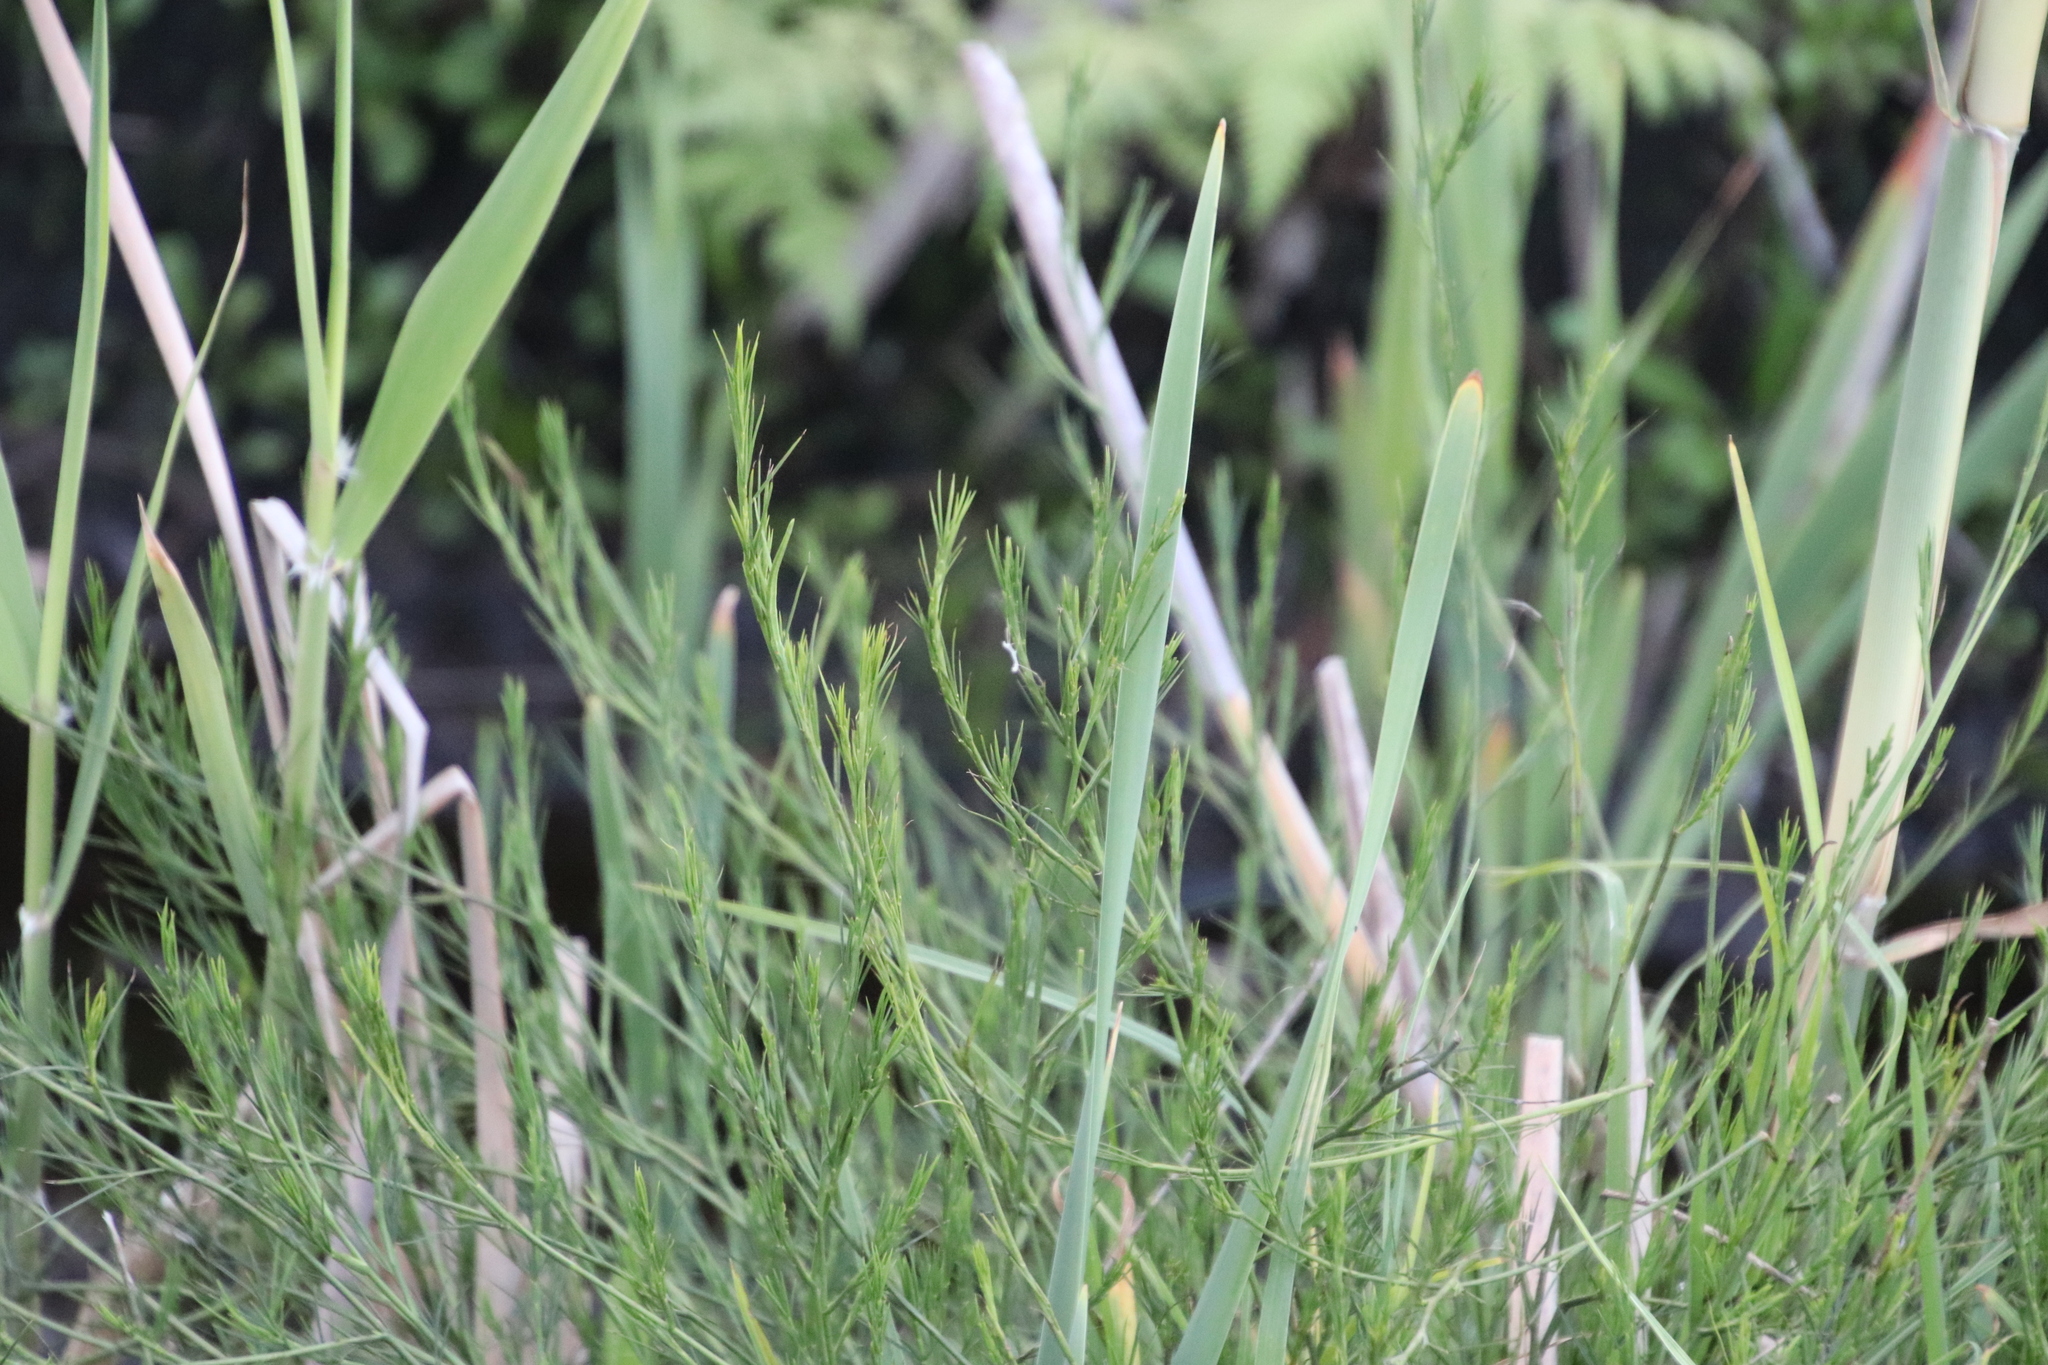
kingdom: Plantae
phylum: Tracheophyta
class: Magnoliopsida
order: Fabales
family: Fabaceae
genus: Psoralea
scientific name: Psoralea fascicularis
